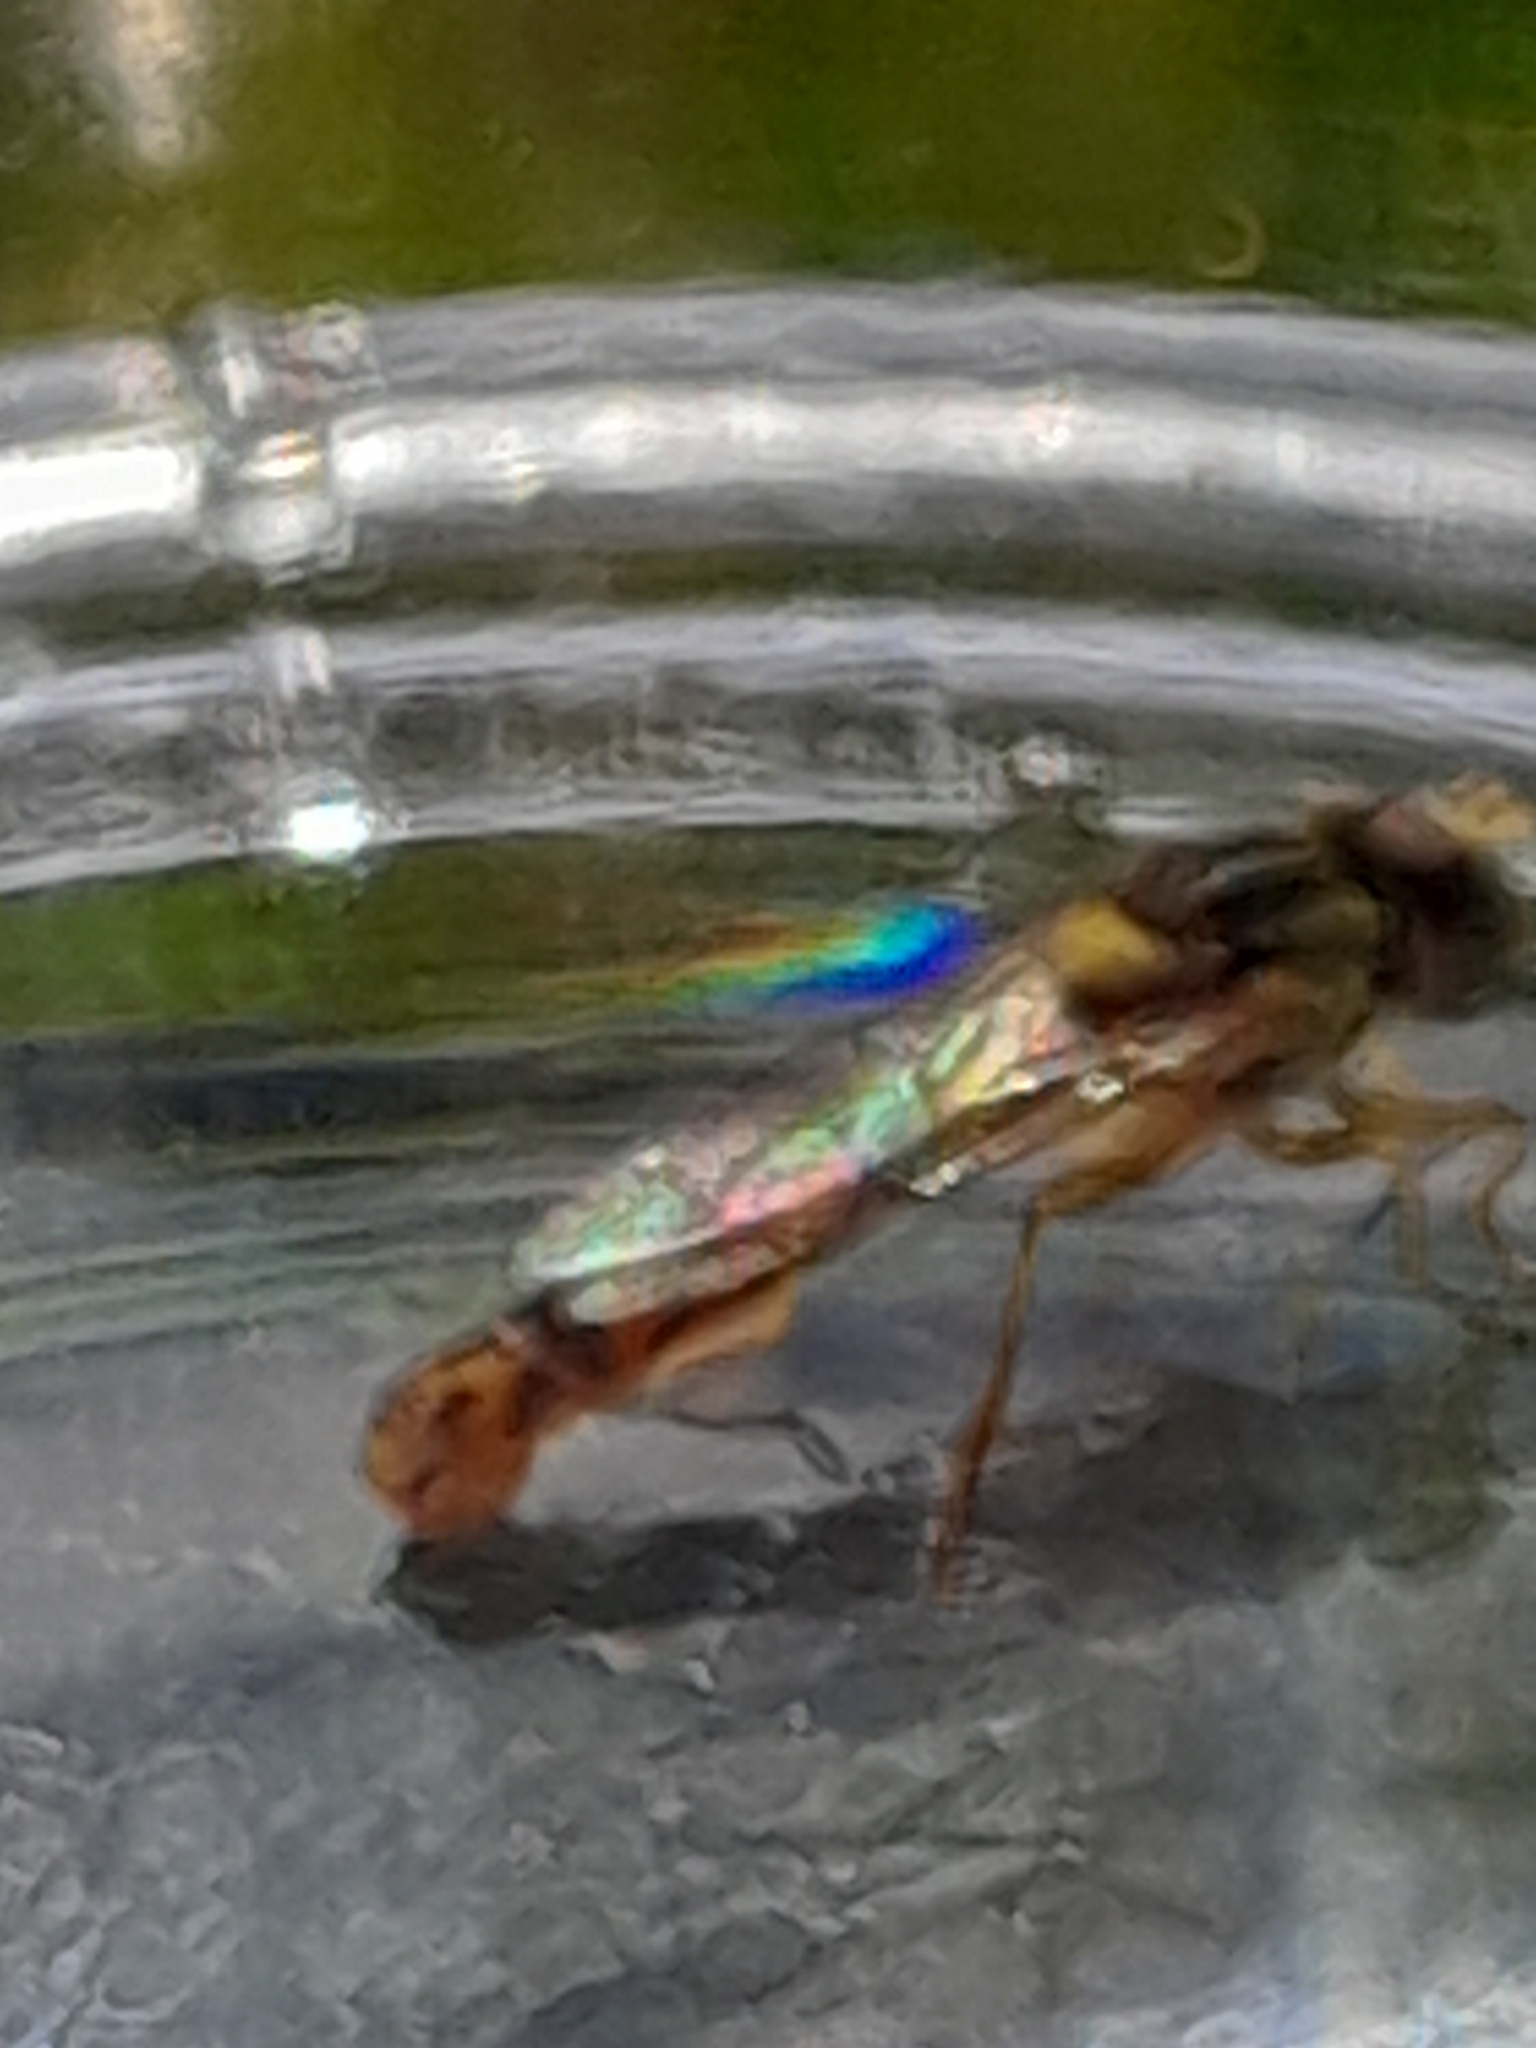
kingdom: Animalia
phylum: Arthropoda
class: Insecta
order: Diptera
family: Syrphidae
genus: Sphaerophoria
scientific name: Sphaerophoria scripta
